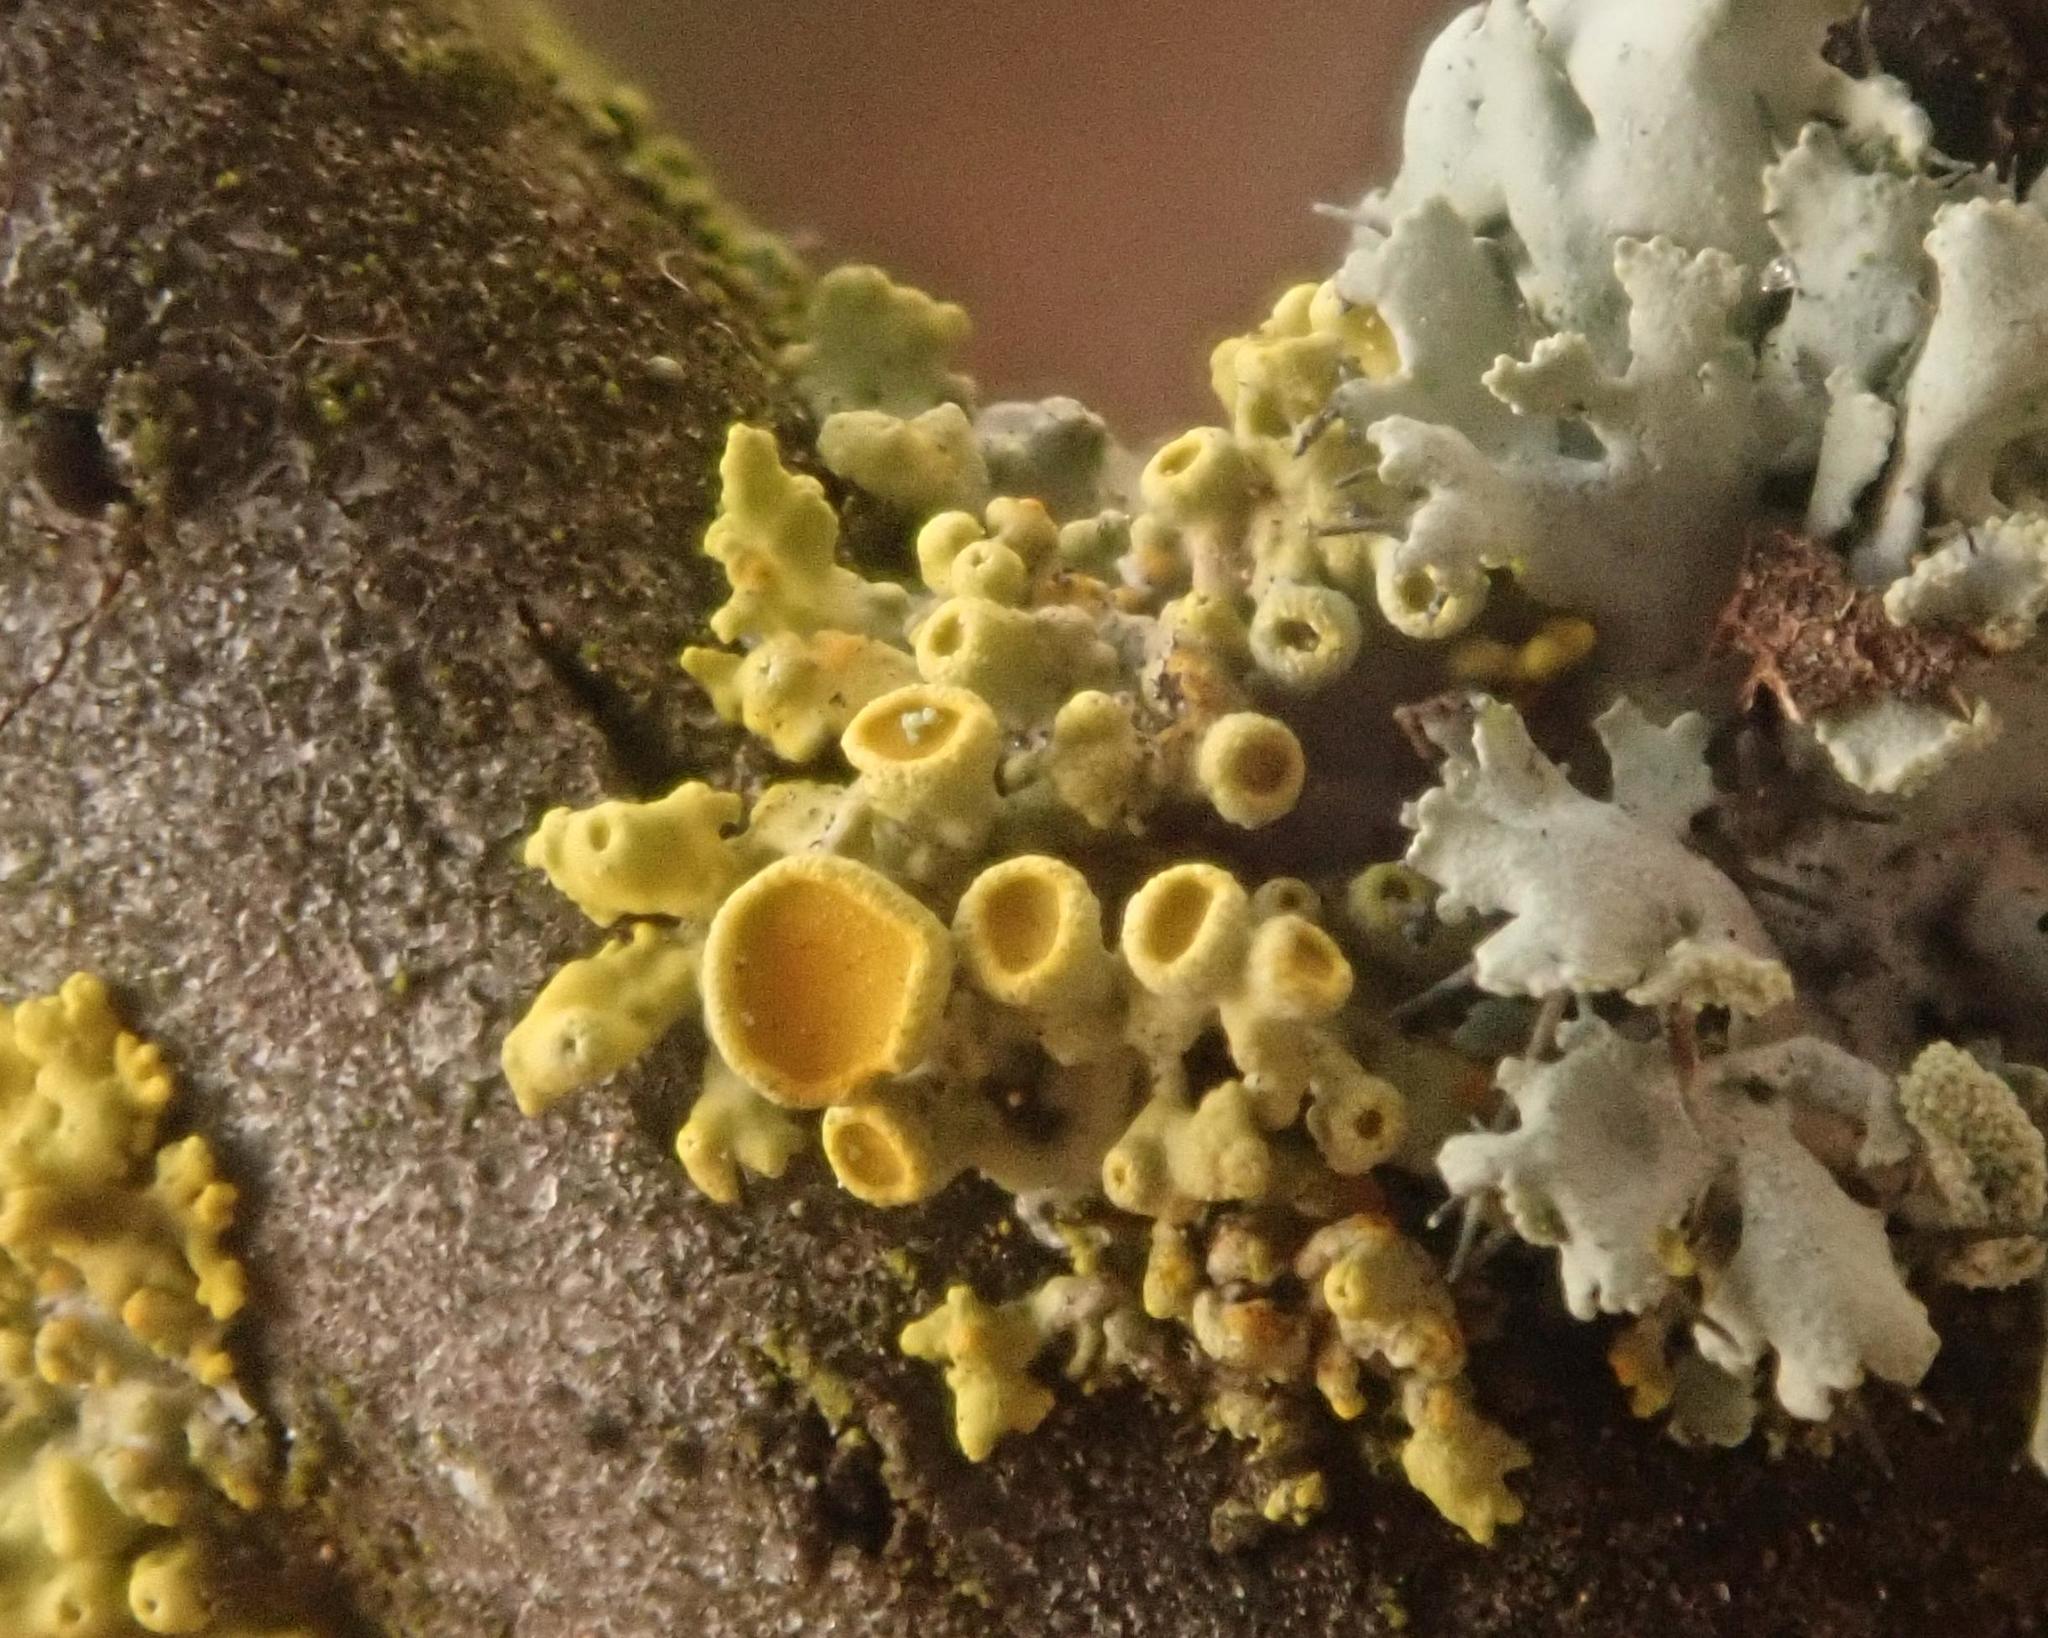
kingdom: Fungi
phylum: Ascomycota
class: Lecanoromycetes
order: Teloschistales
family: Teloschistaceae
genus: Polycauliona
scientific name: Polycauliona polycarpa
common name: Pin-cushion sunburst lichen
